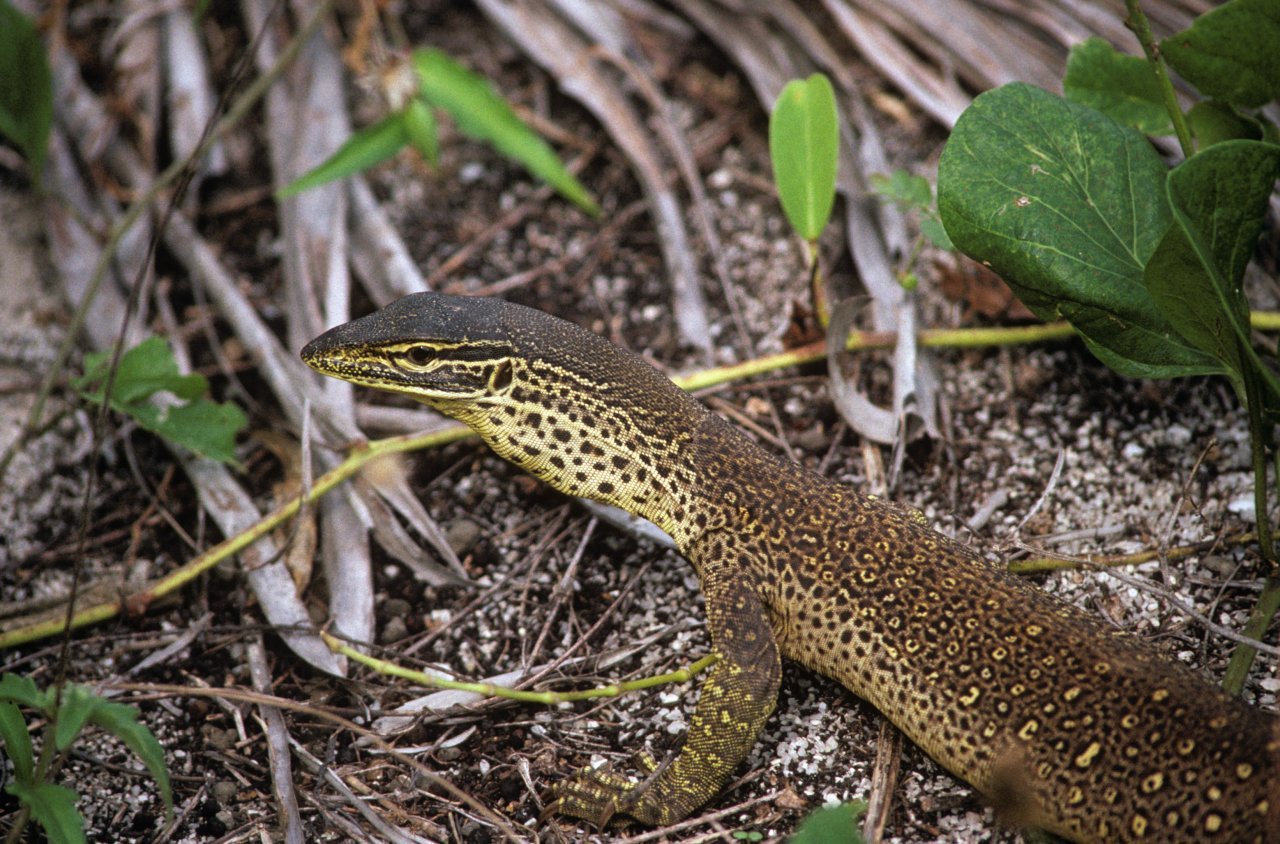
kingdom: Animalia
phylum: Chordata
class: Squamata
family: Varanidae
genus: Varanus
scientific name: Varanus panoptes
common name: Yellow-spotted monitor
